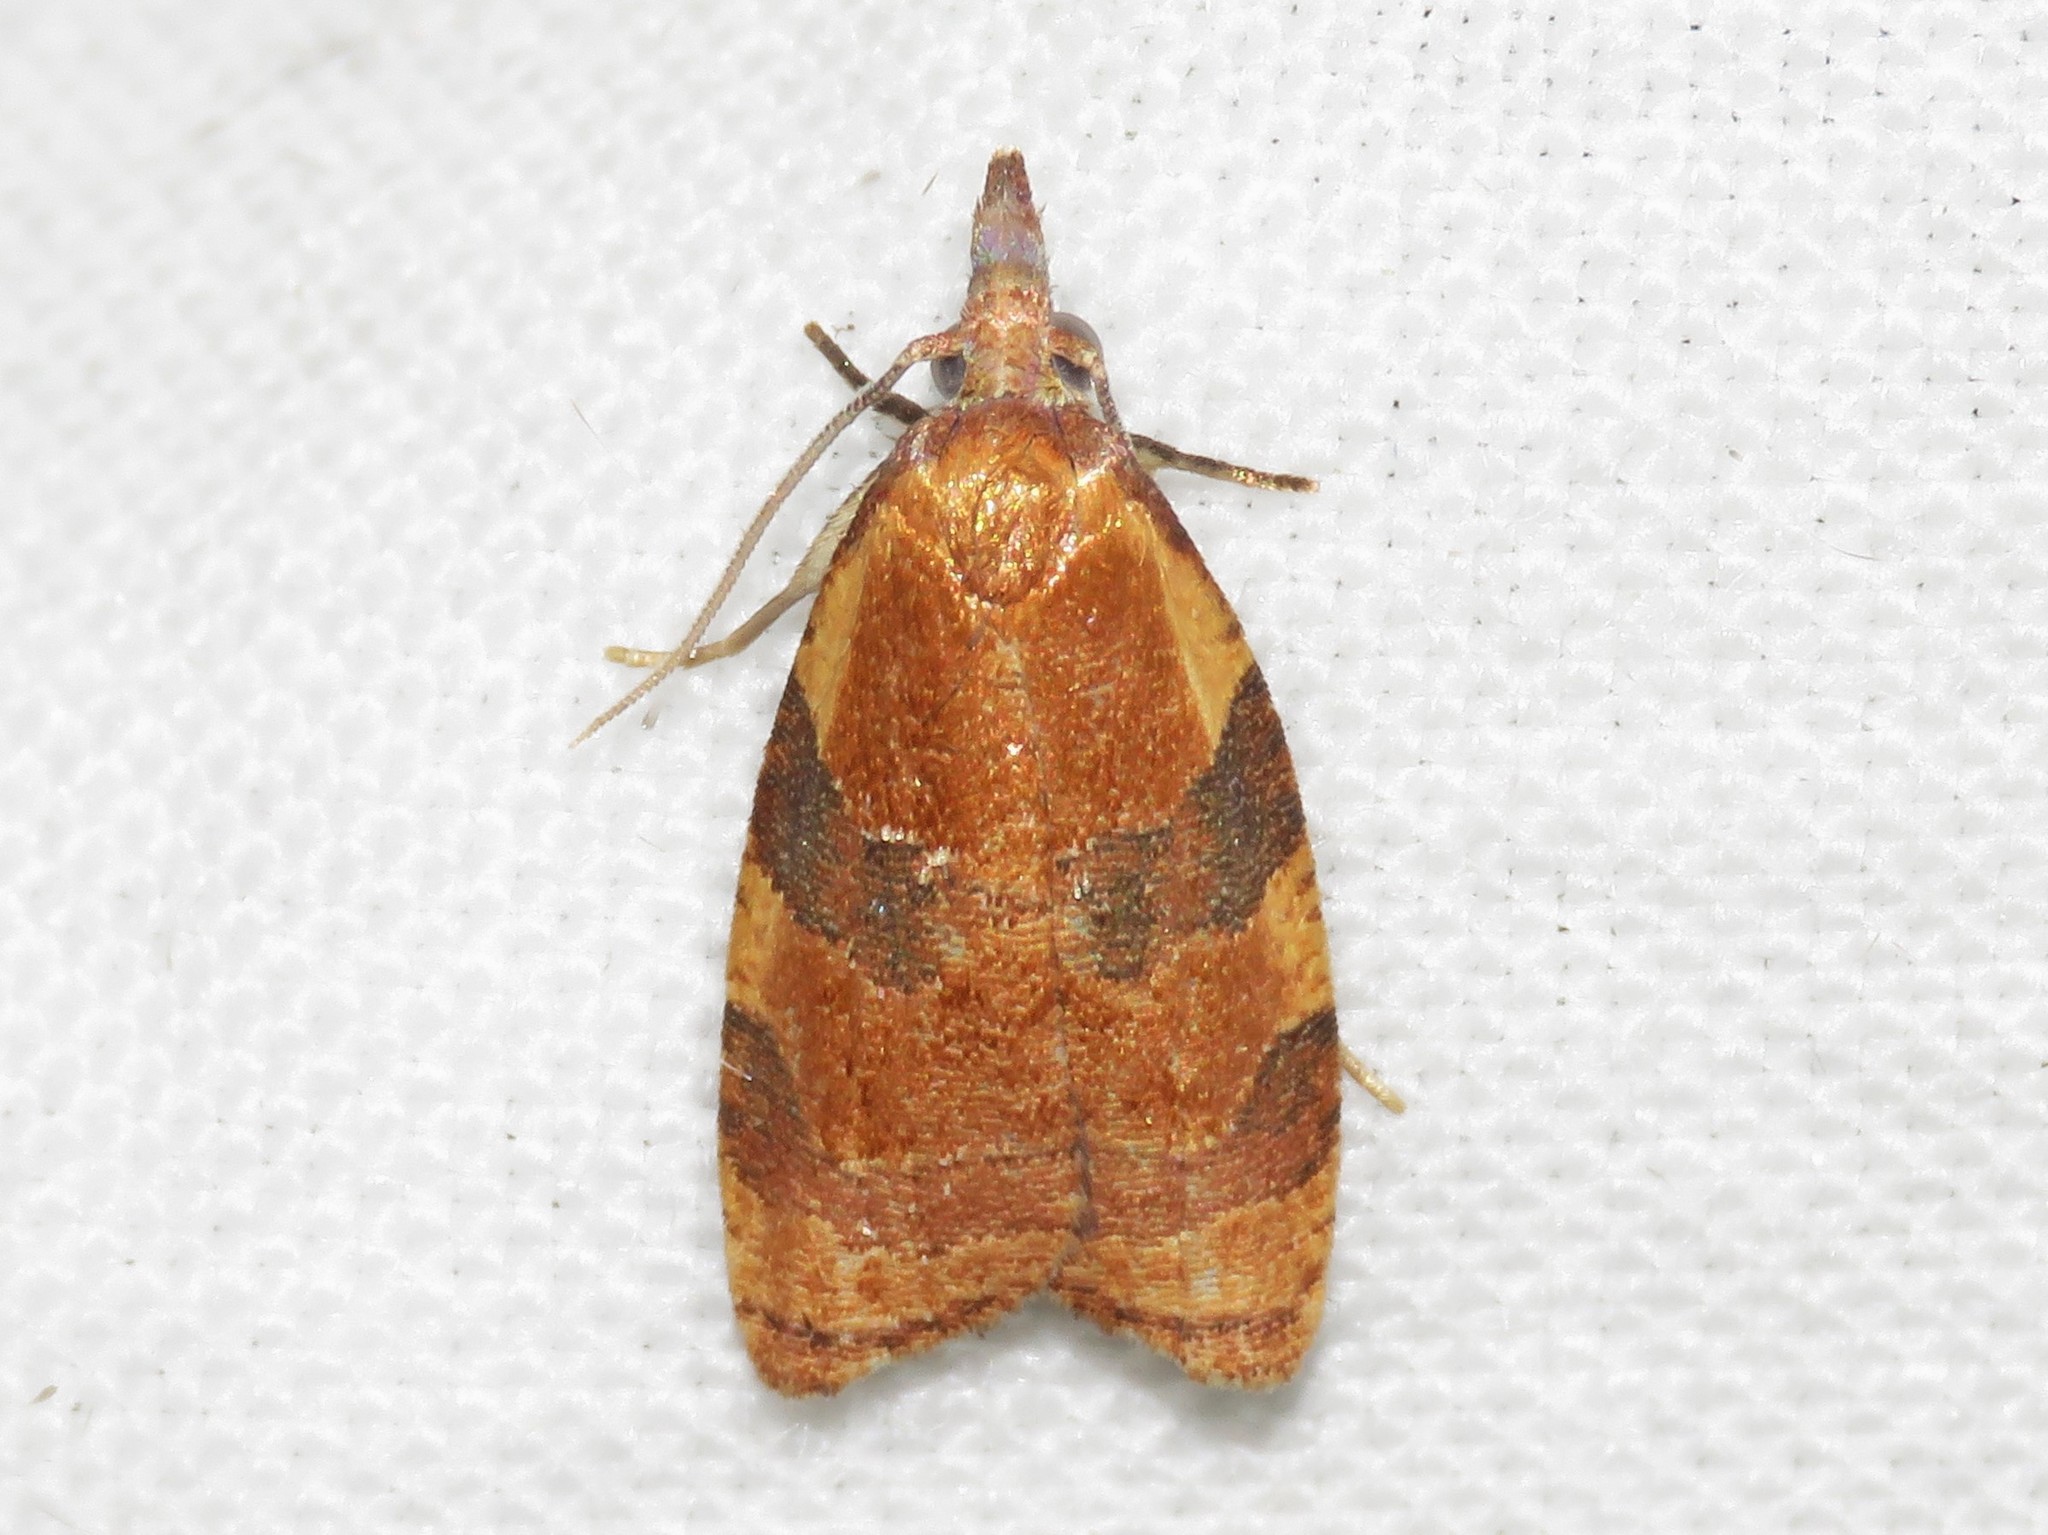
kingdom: Animalia
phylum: Arthropoda
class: Insecta
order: Lepidoptera
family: Tortricidae
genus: Cenopis
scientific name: Cenopis diluticostana
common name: Spring dead-leaf roller moth
